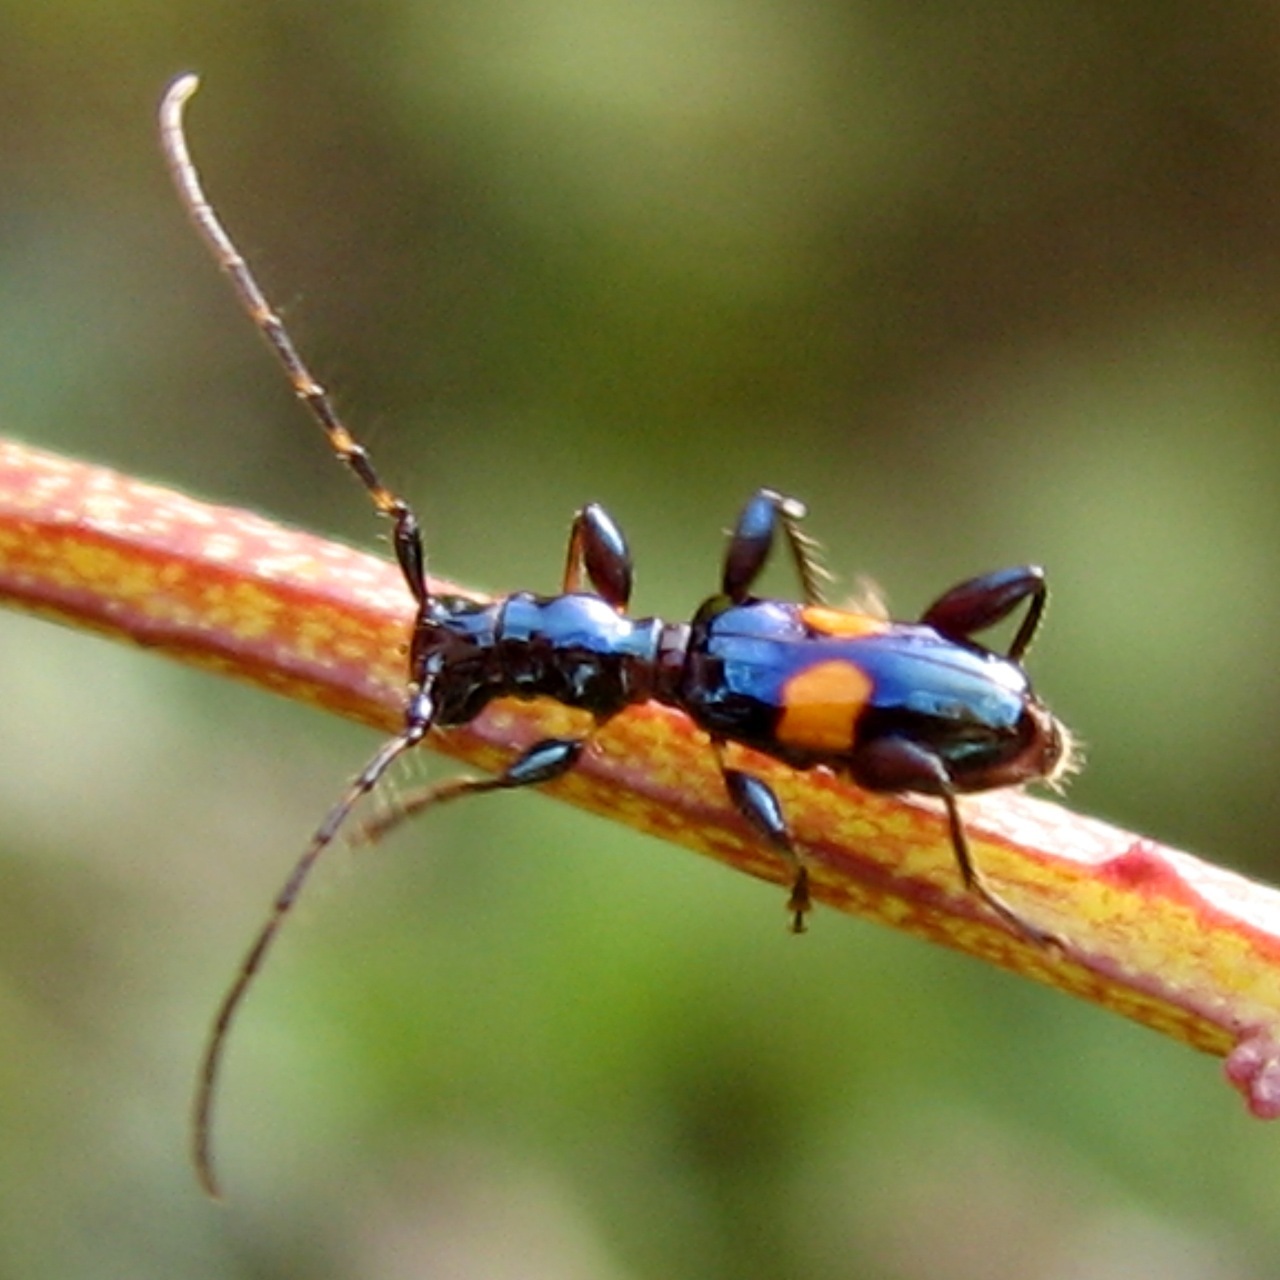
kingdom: Animalia
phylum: Arthropoda
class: Insecta
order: Coleoptera
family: Cerambycidae
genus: Zorion
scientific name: Zorion guttigerum
